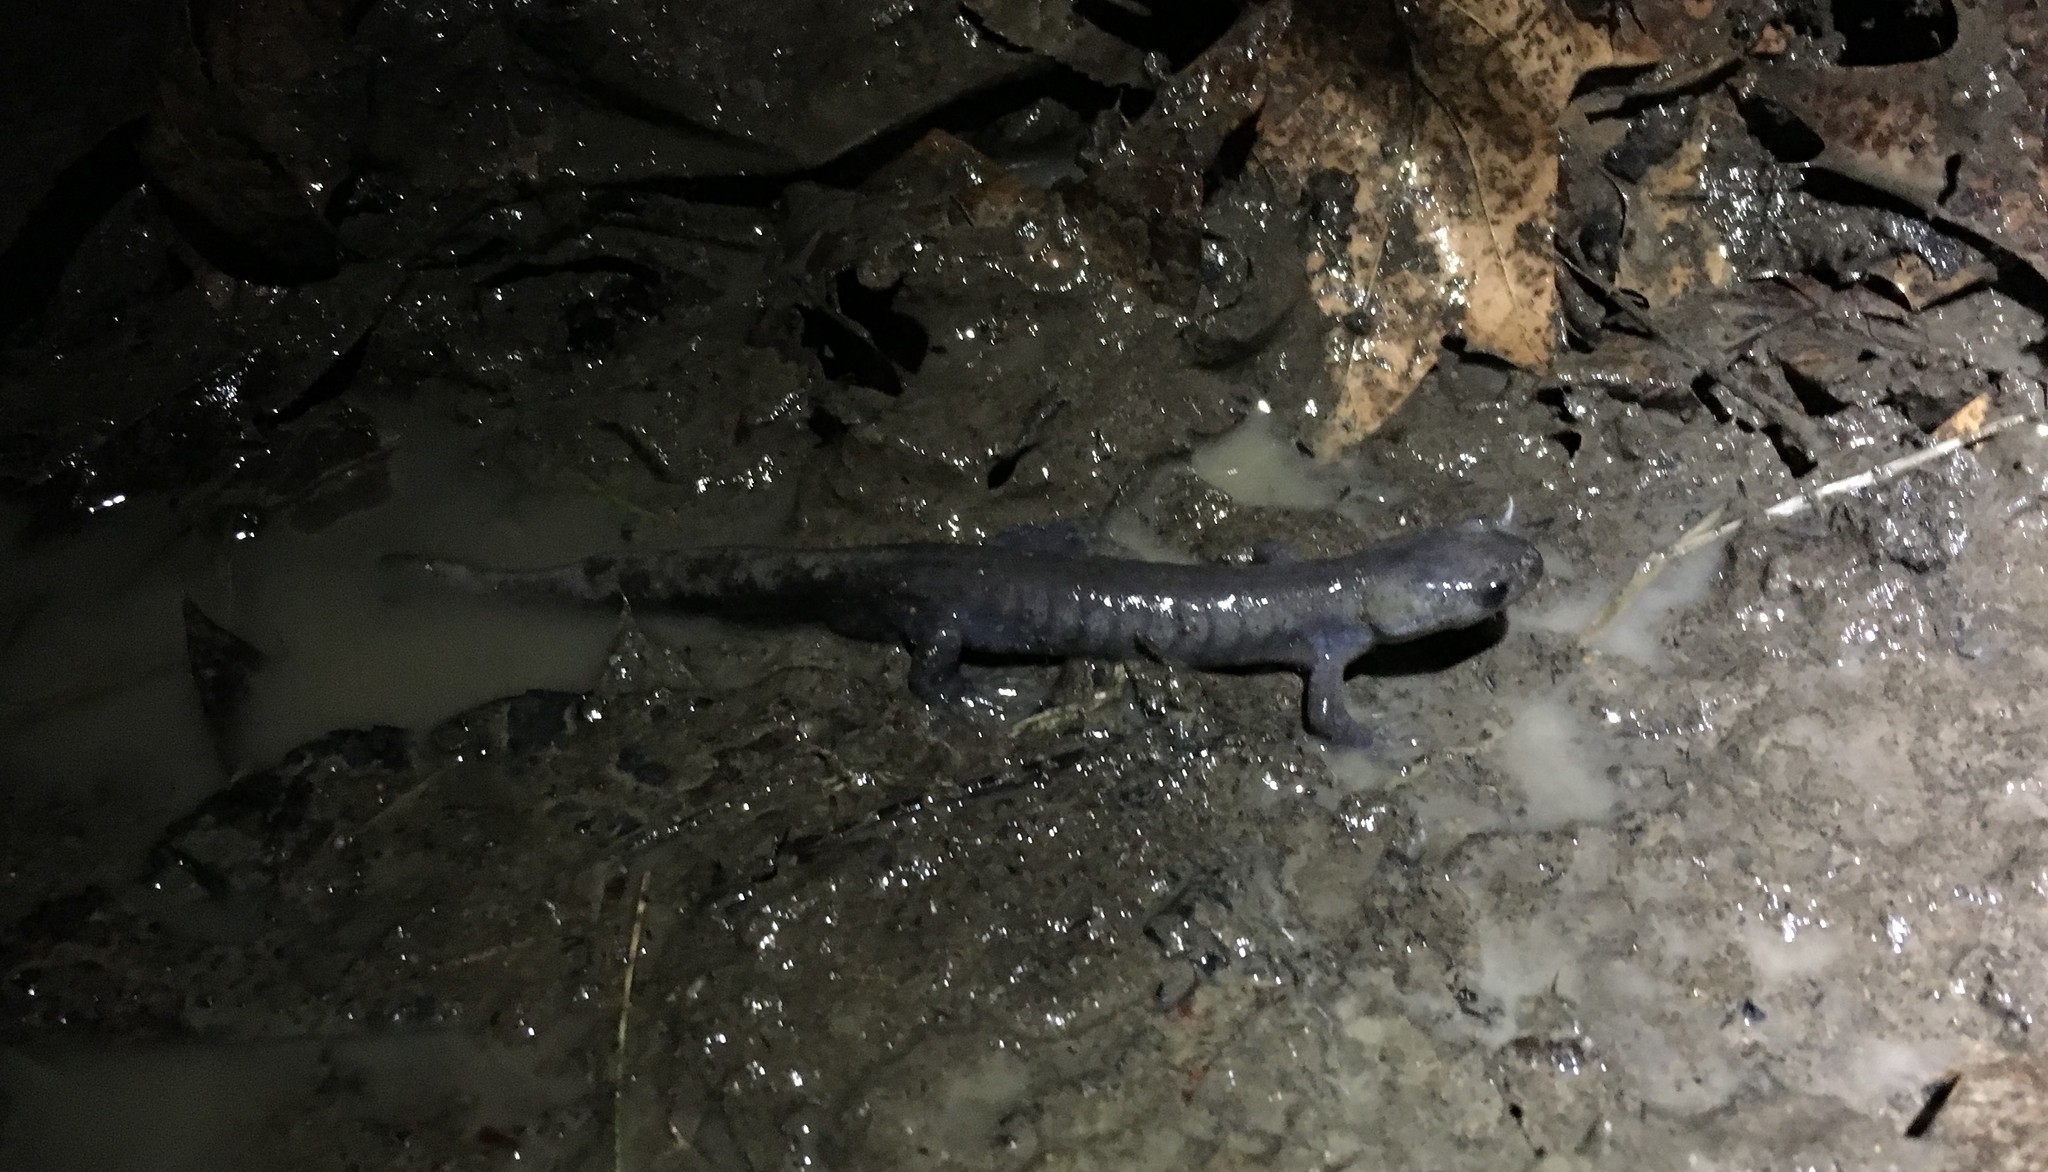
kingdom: Animalia
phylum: Chordata
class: Amphibia
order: Caudata
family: Ambystomatidae
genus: Ambystoma
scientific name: Ambystoma jeffersonianum
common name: Jefferson salamander
